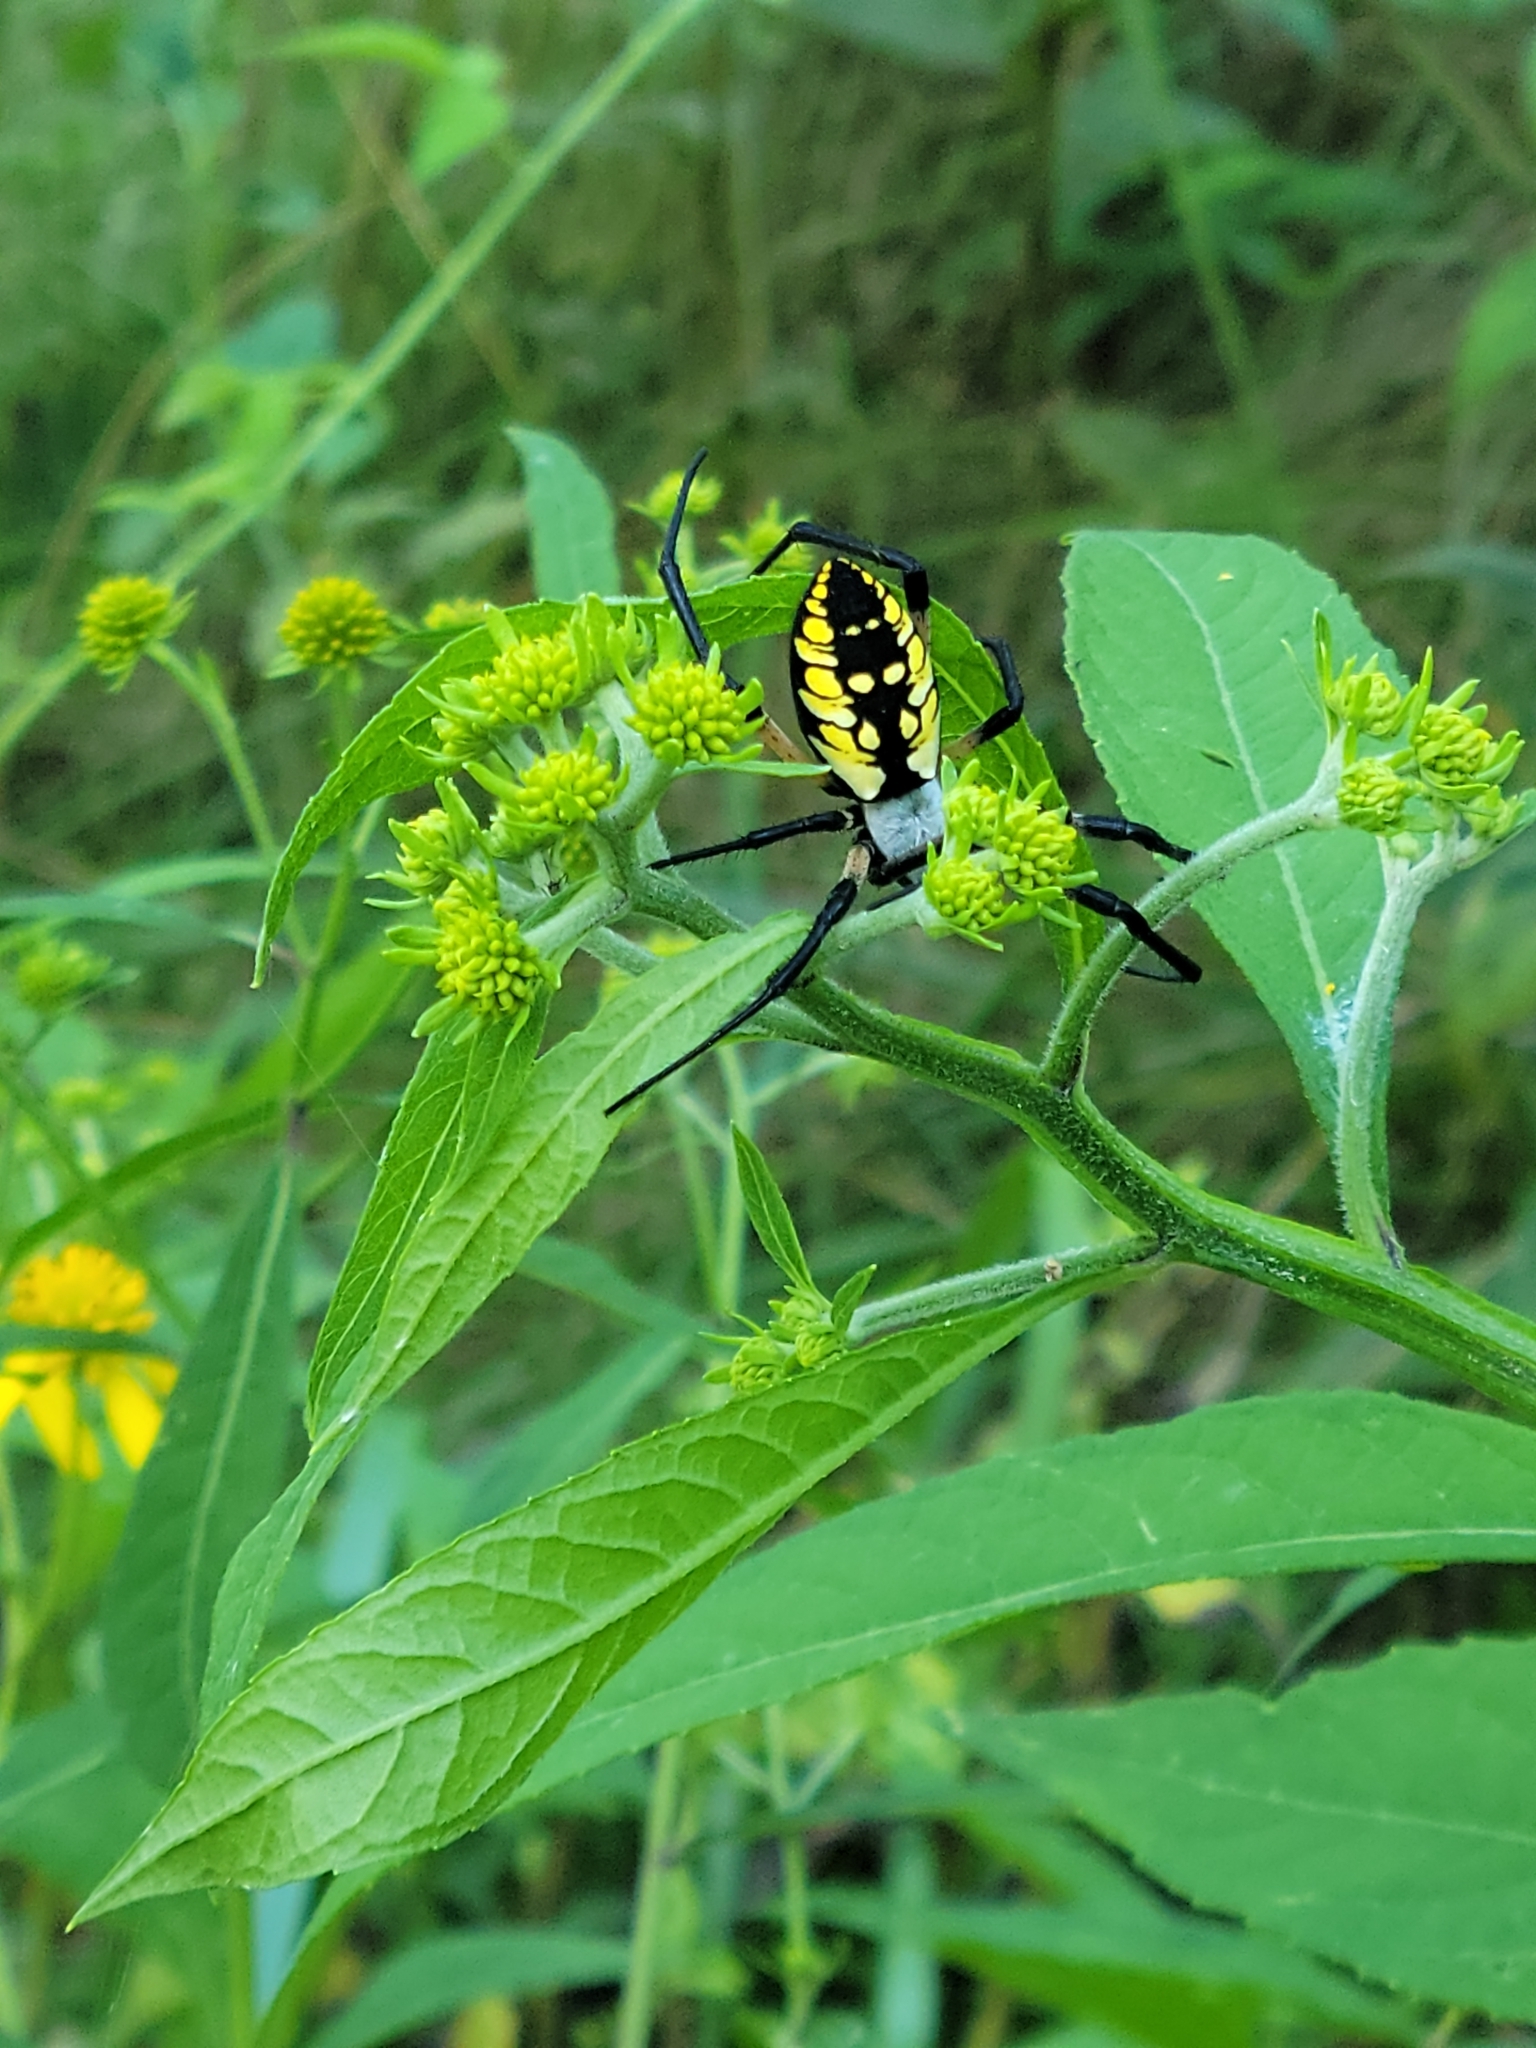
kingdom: Animalia
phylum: Arthropoda
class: Arachnida
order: Araneae
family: Araneidae
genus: Argiope
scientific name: Argiope aurantia
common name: Orb weavers
